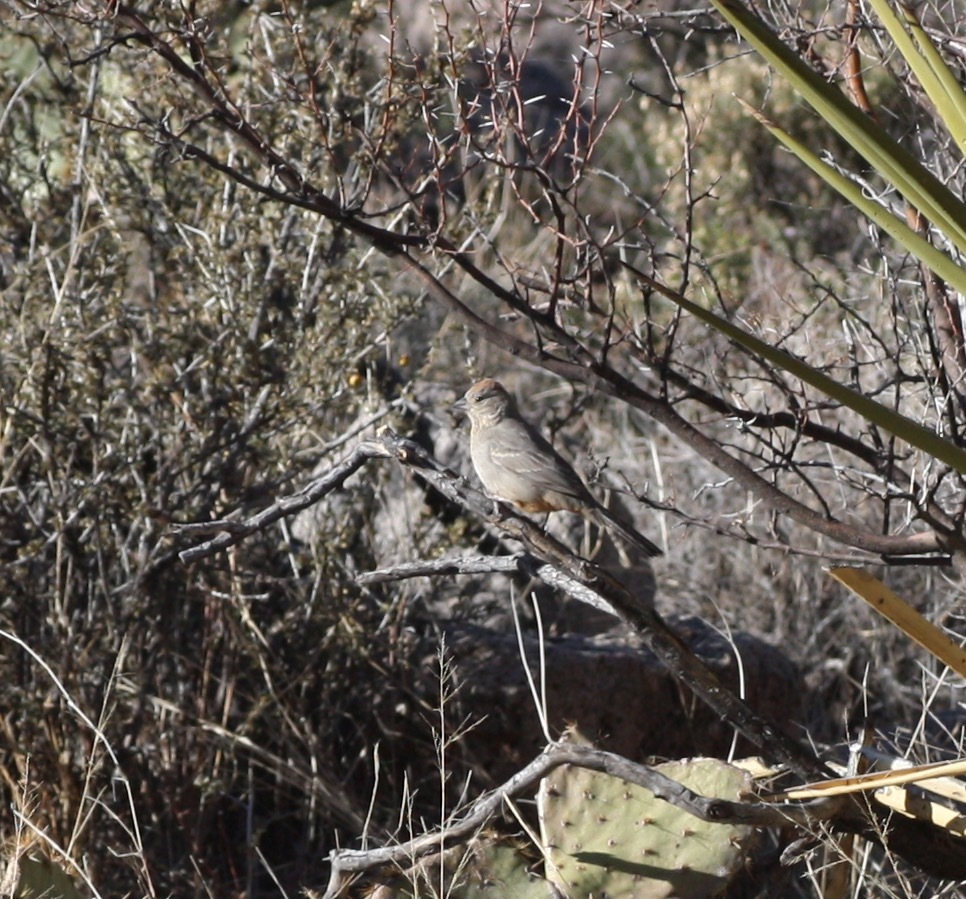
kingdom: Animalia
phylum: Chordata
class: Aves
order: Passeriformes
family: Passerellidae
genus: Melozone
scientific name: Melozone fusca
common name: Canyon towhee
